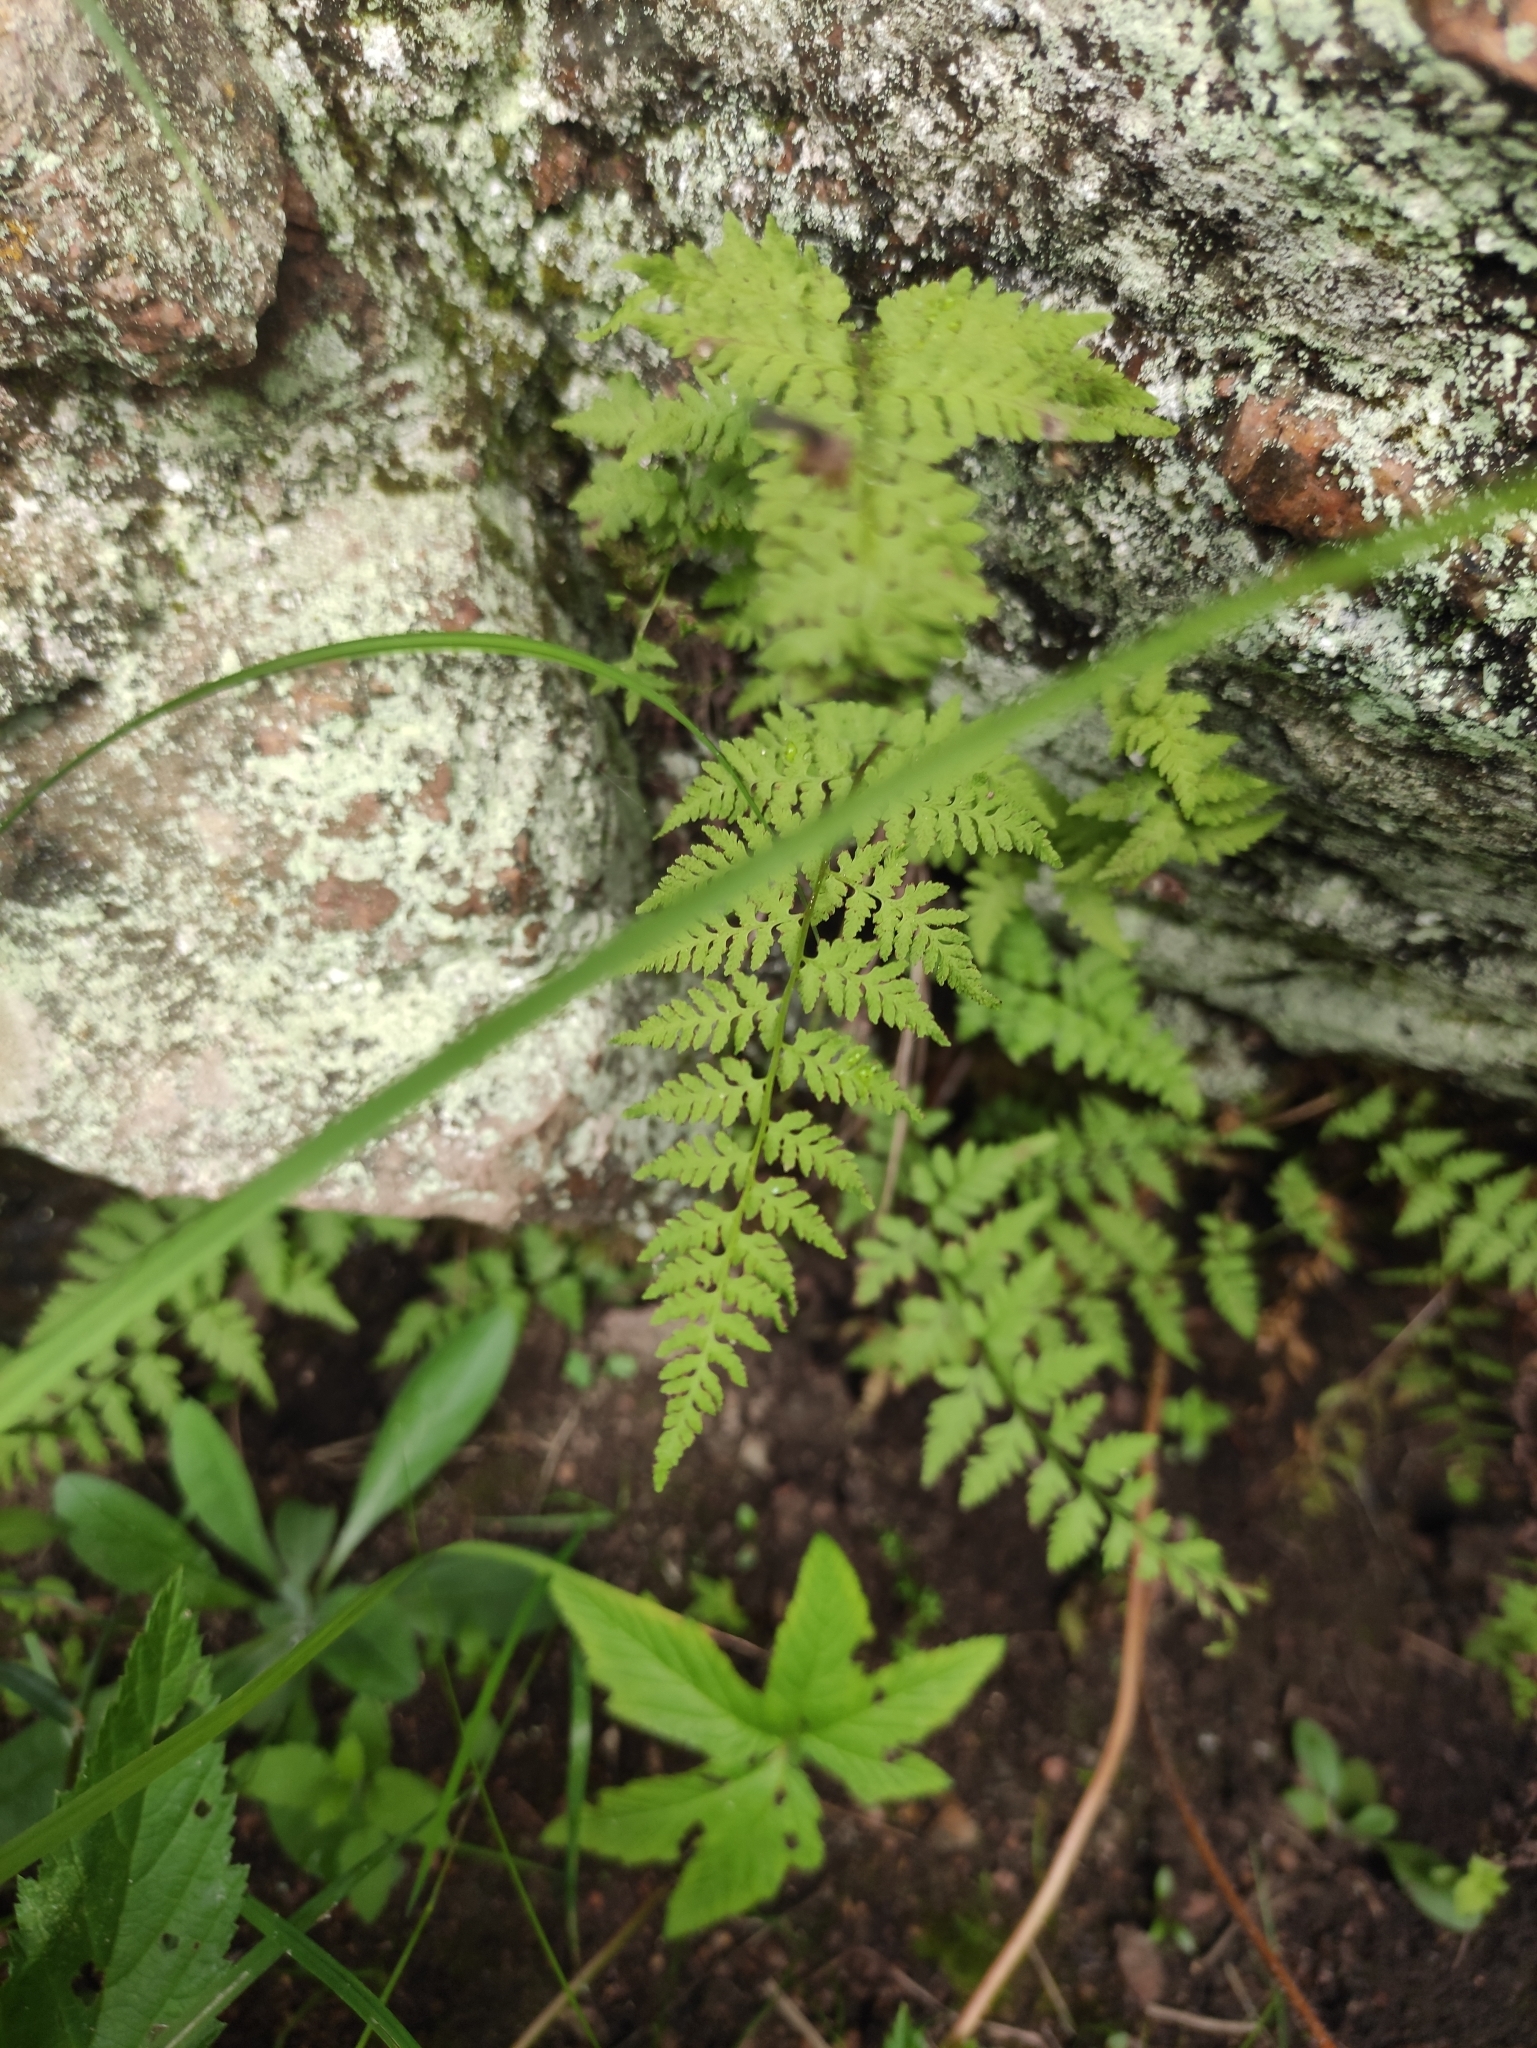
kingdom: Plantae
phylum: Tracheophyta
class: Polypodiopsida
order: Polypodiales
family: Cystopteridaceae
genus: Cystopteris
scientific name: Cystopteris fragilis
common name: Brittle bladder fern
